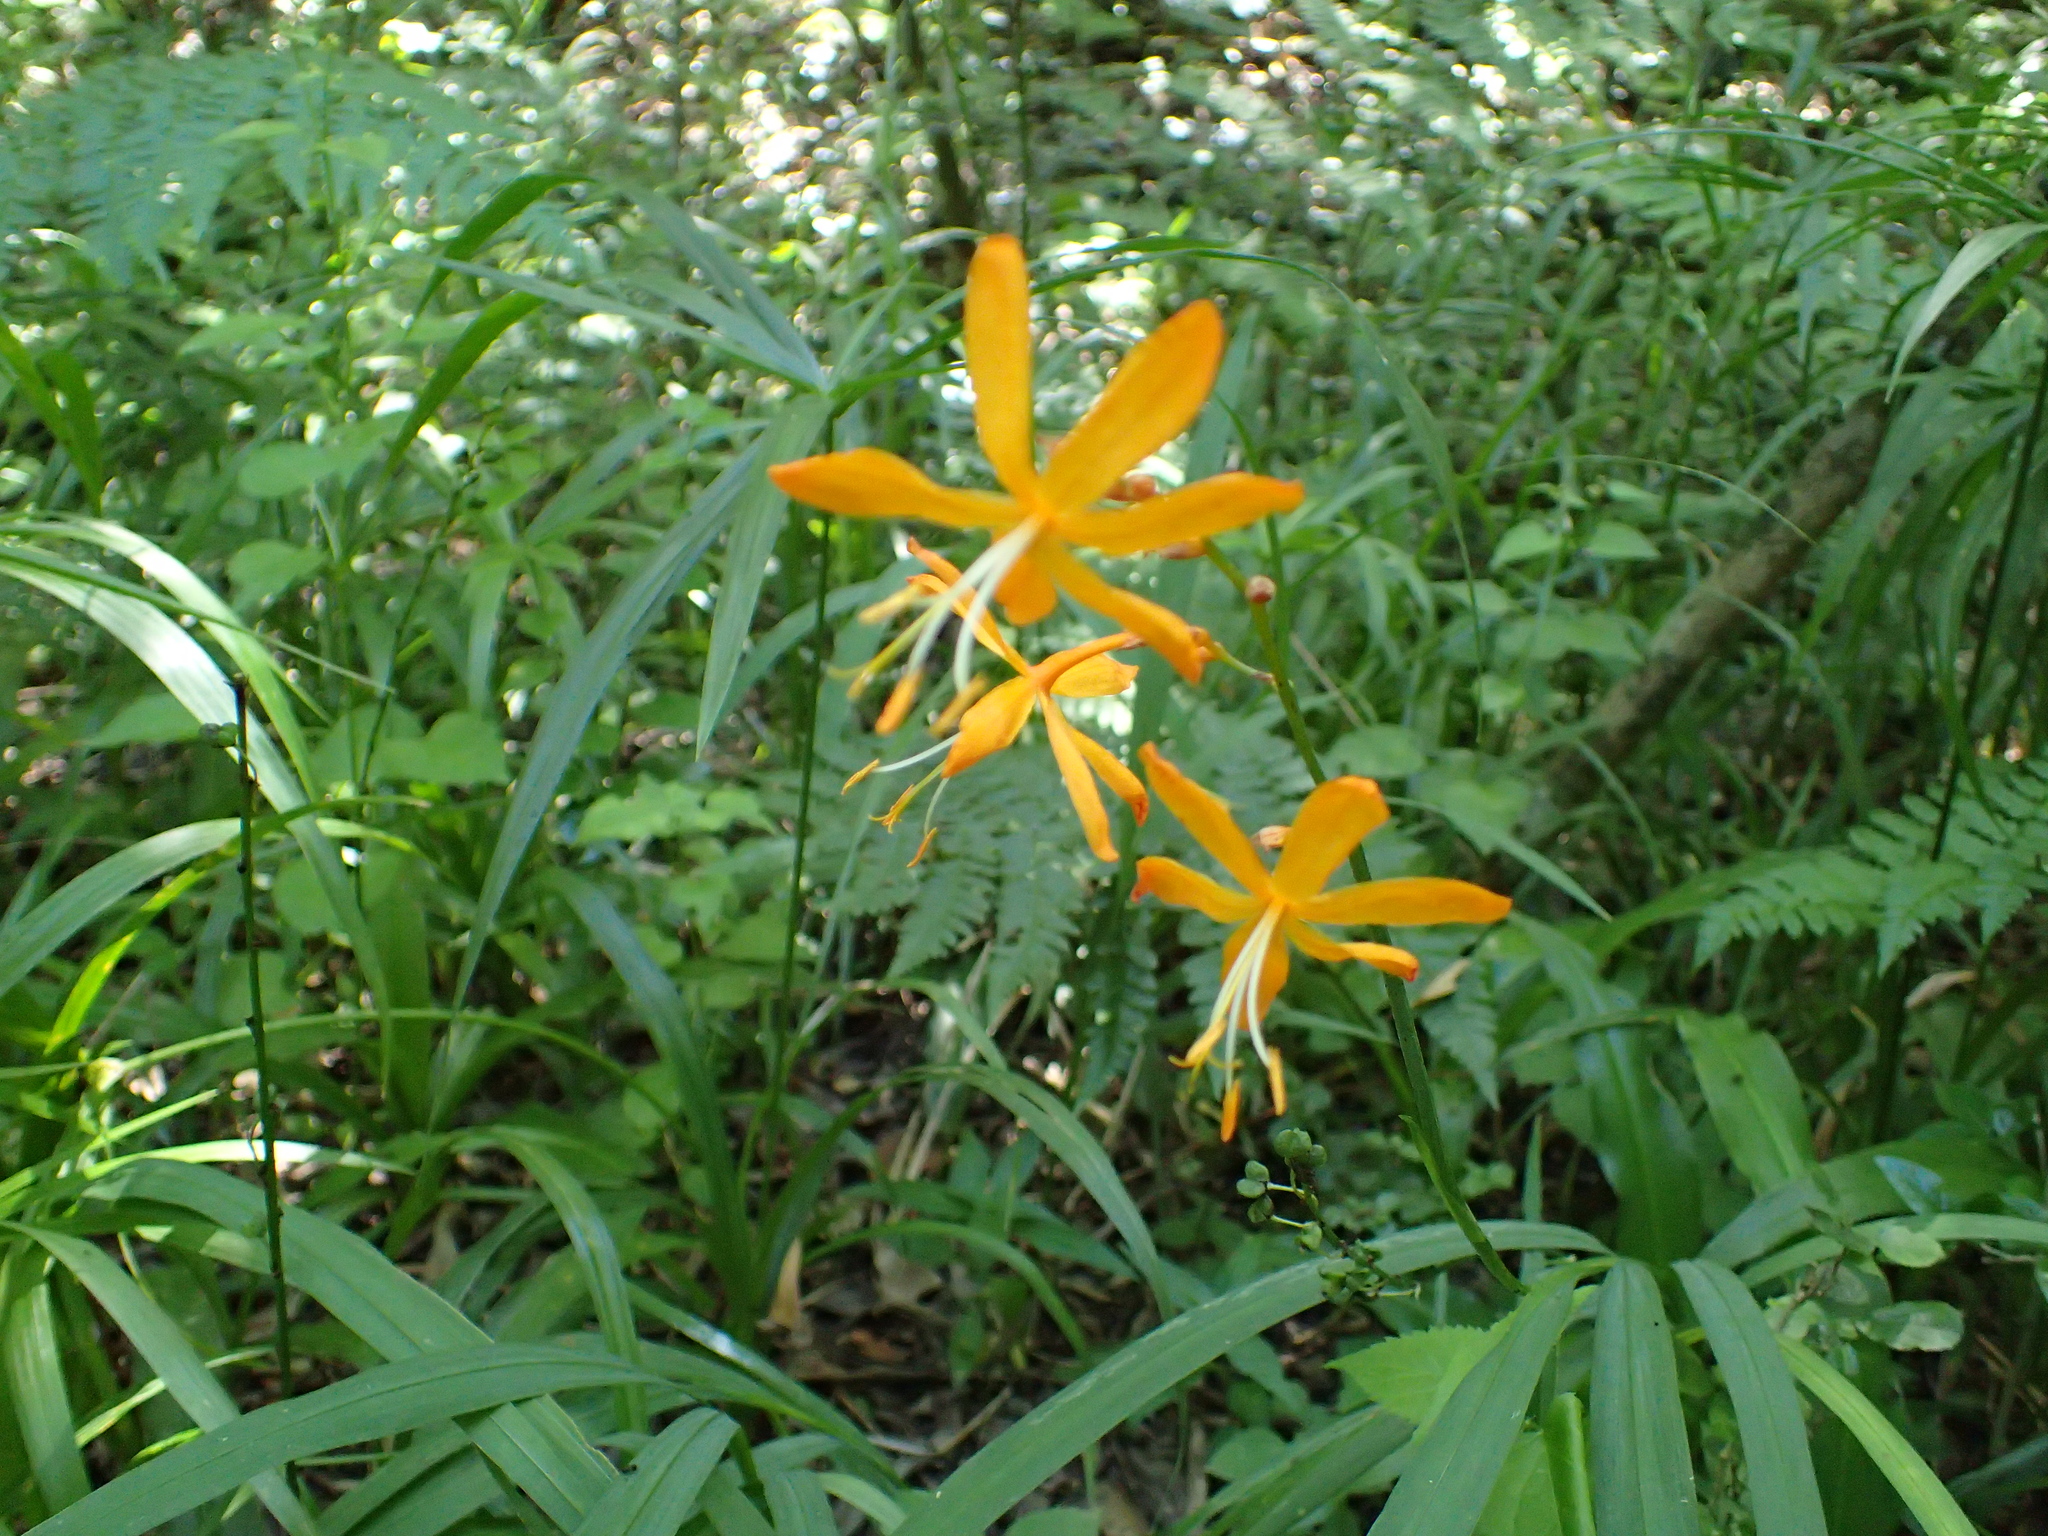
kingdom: Plantae
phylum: Tracheophyta
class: Liliopsida
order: Asparagales
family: Iridaceae
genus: Crocosmia
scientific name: Crocosmia aurea
